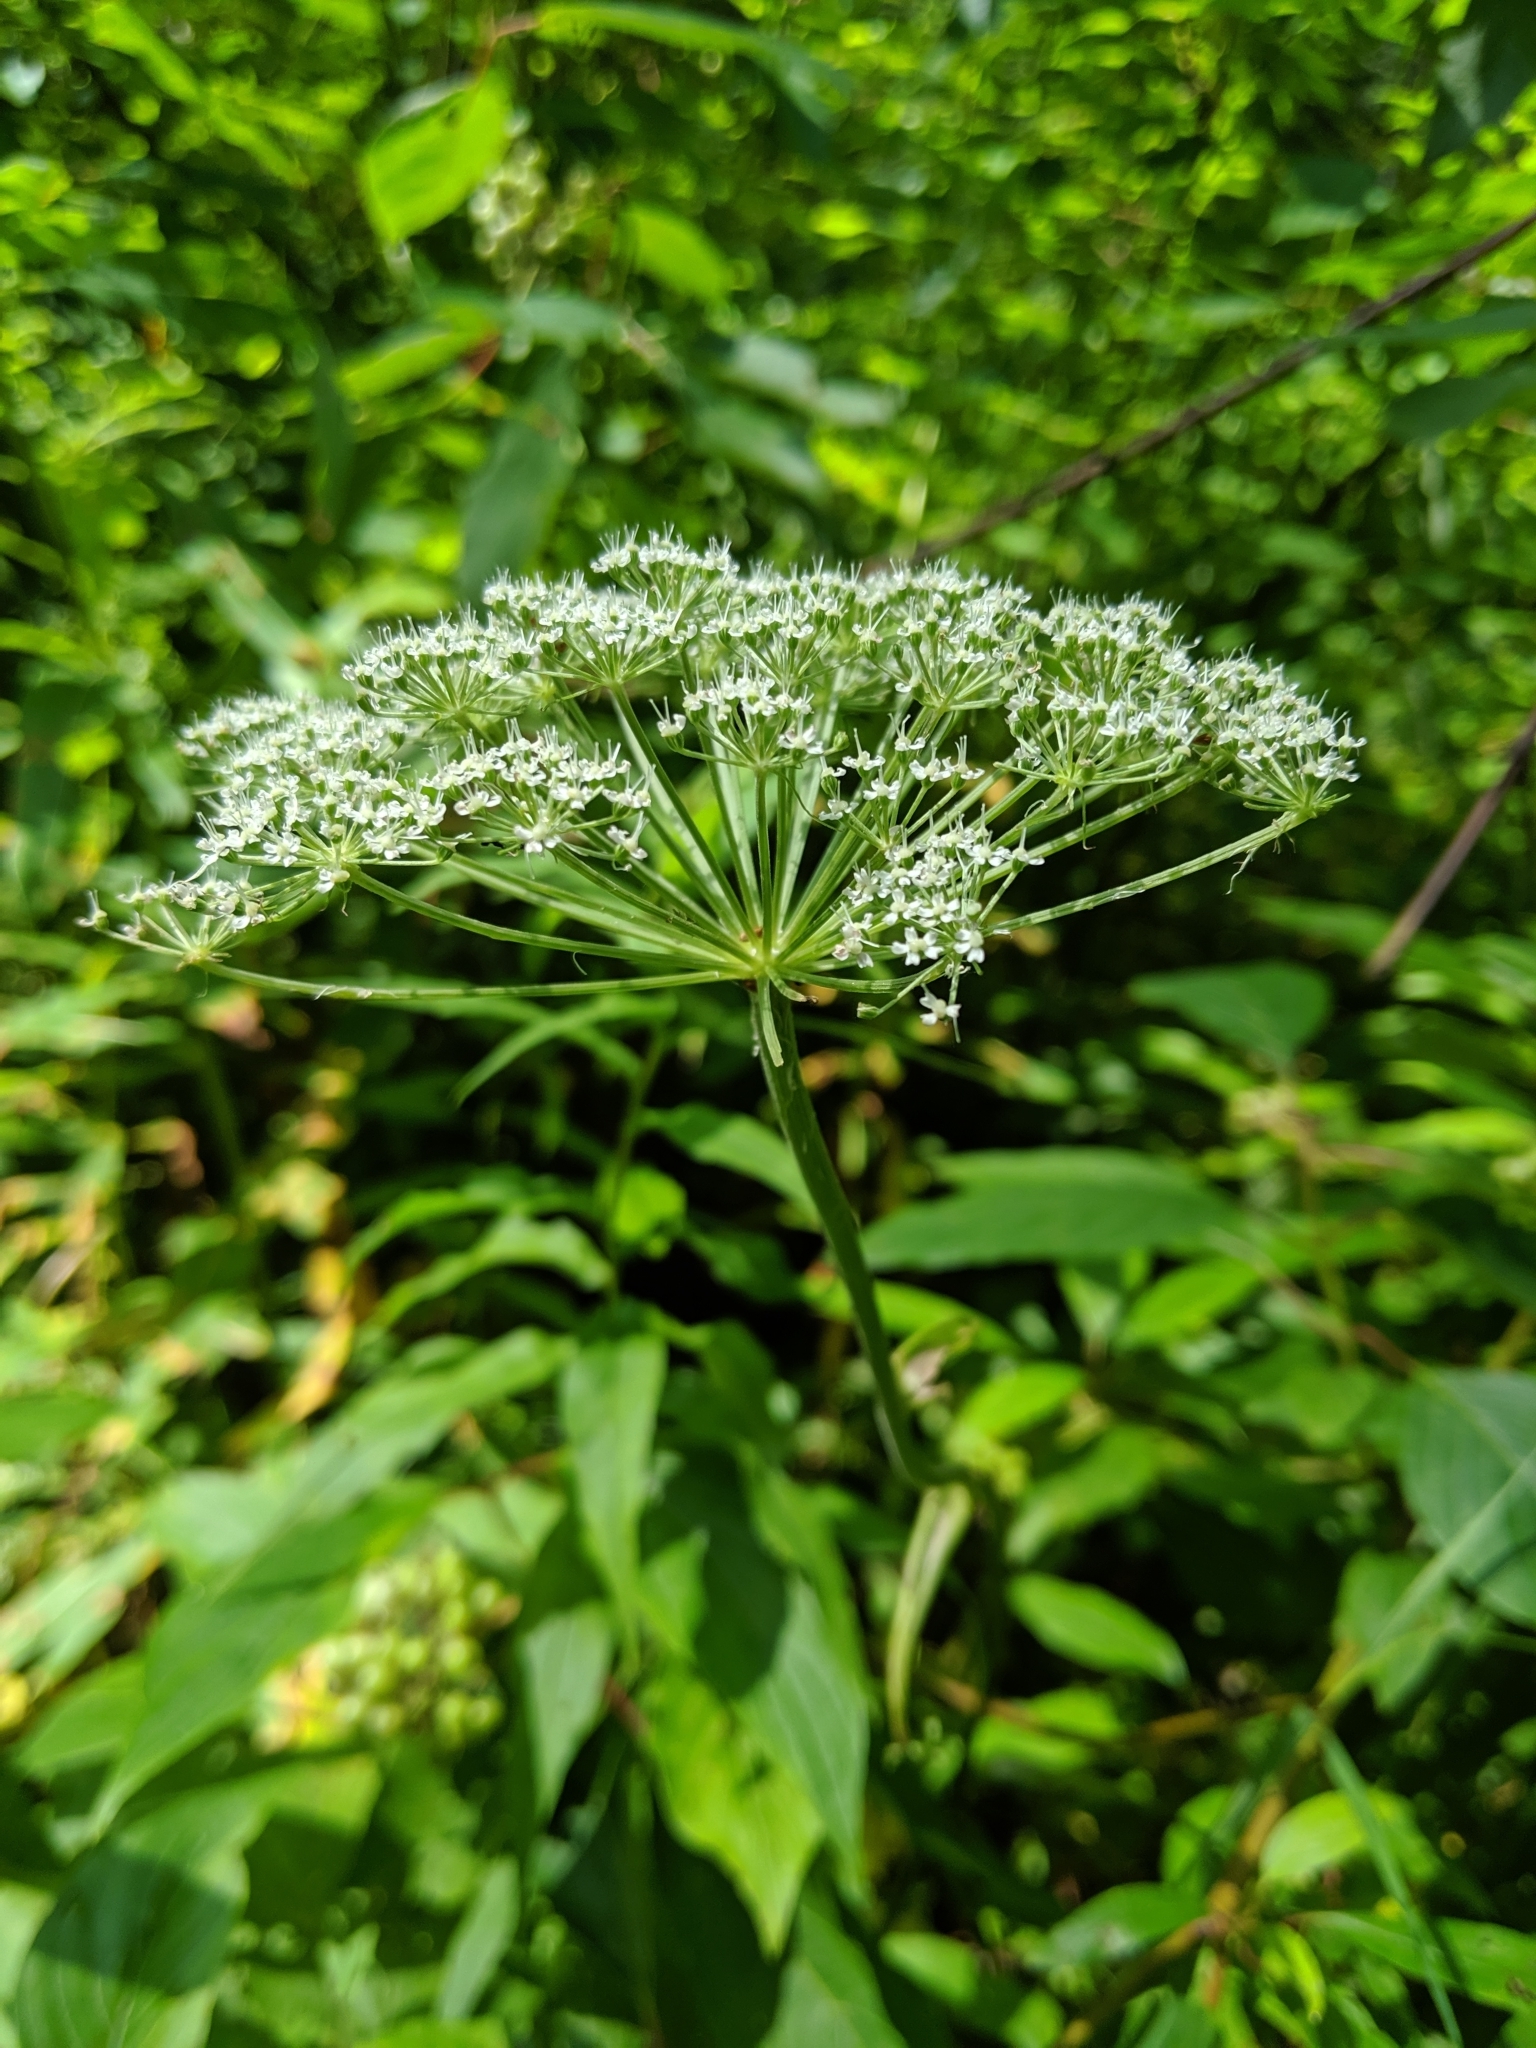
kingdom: Plantae
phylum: Tracheophyta
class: Magnoliopsida
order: Apiales
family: Apiaceae
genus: Heracleum
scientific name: Heracleum maximum
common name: American cow parsnip
